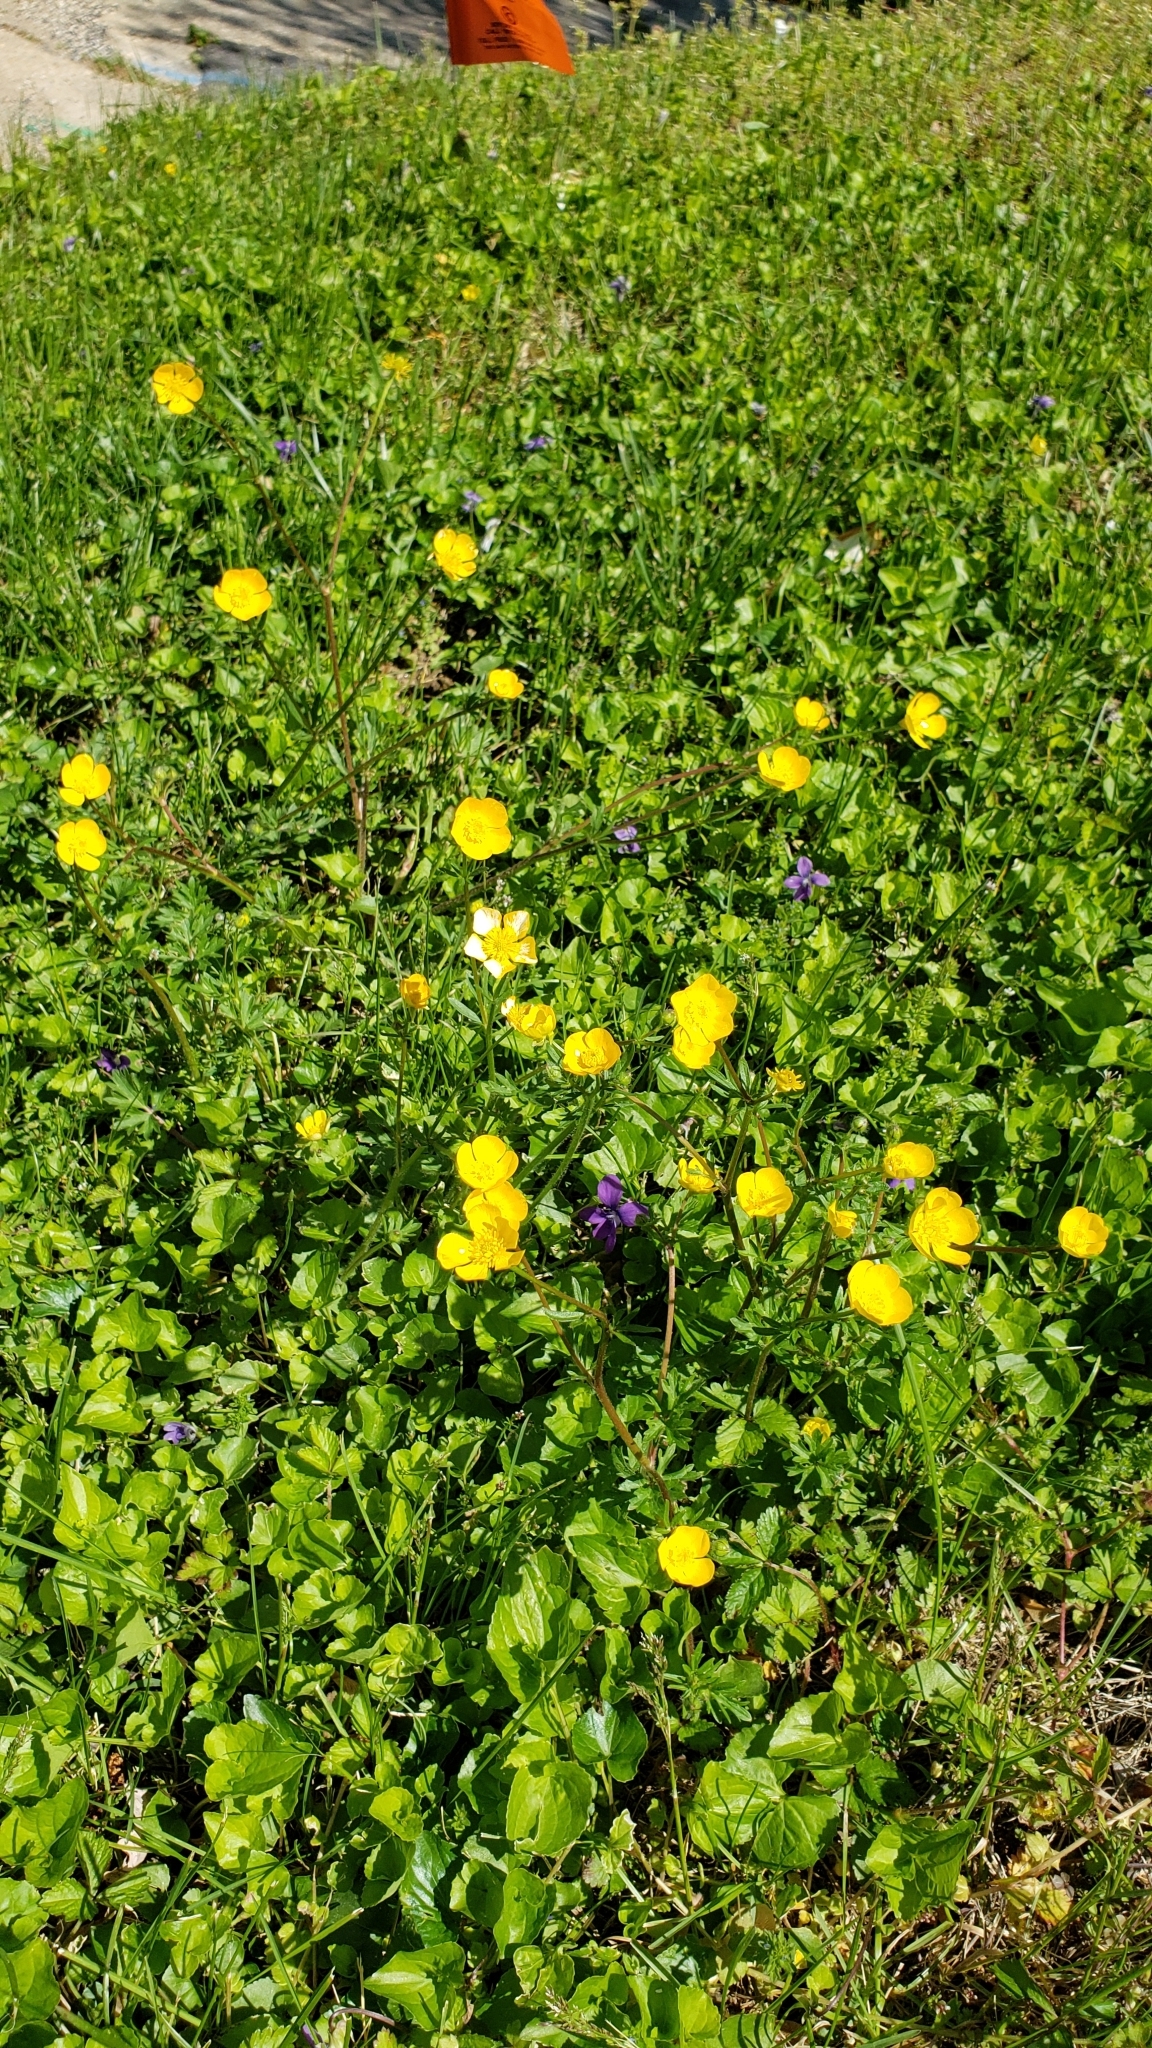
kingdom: Plantae
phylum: Tracheophyta
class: Magnoliopsida
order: Ranunculales
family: Ranunculaceae
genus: Ranunculus
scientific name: Ranunculus bulbosus
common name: Bulbous buttercup
